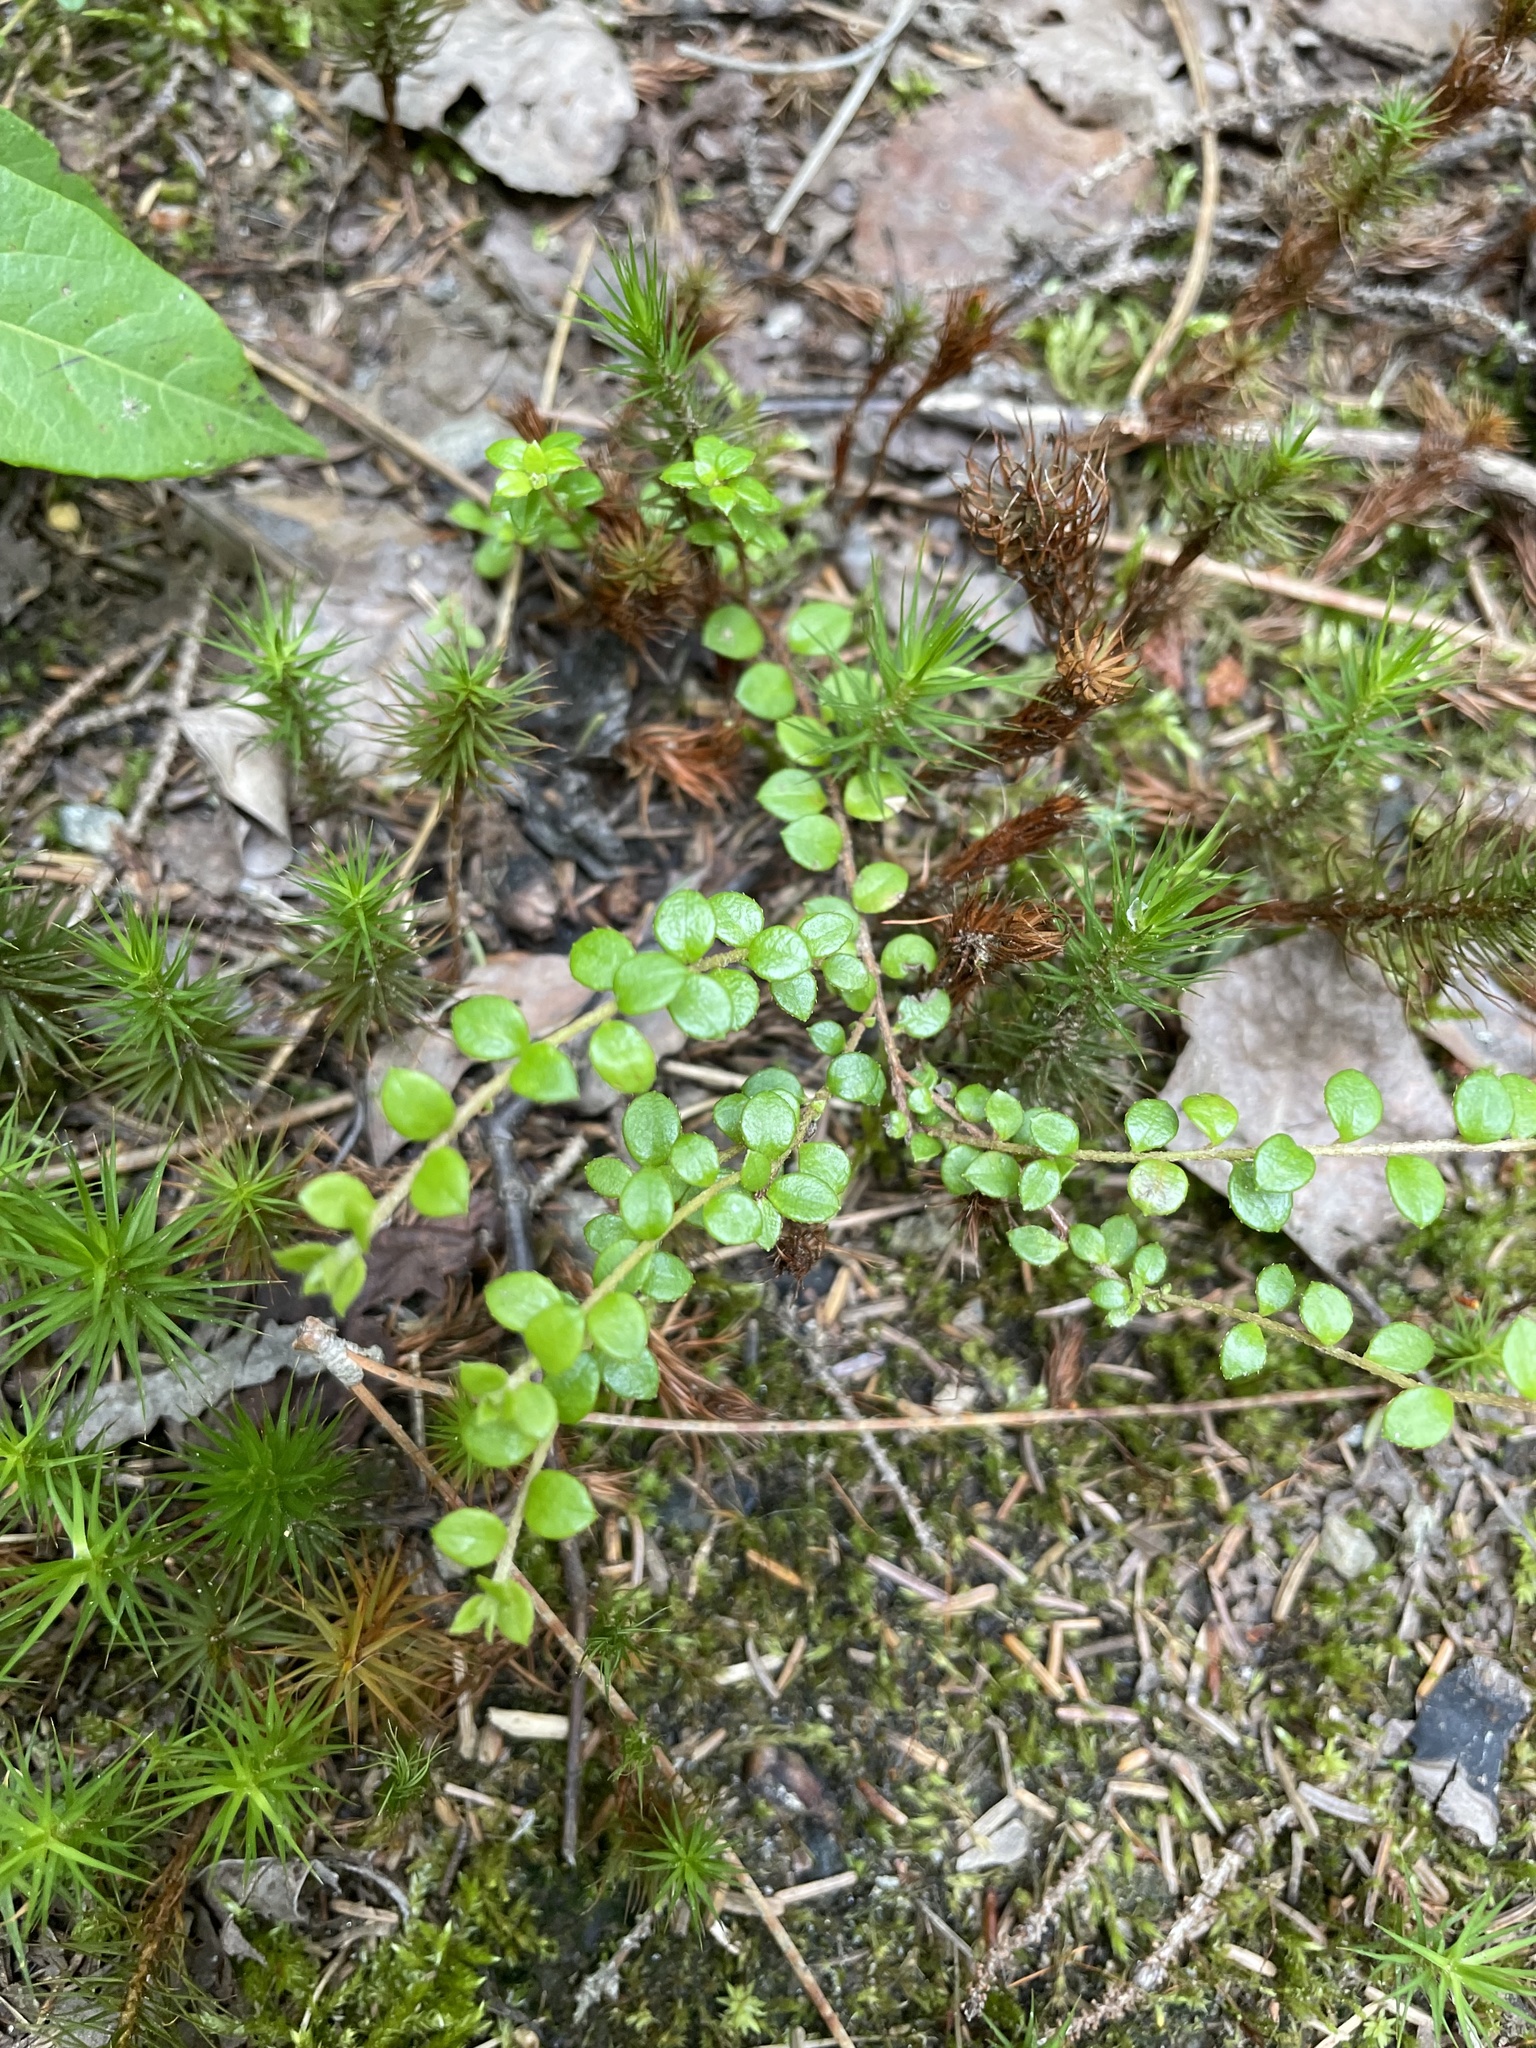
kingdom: Plantae
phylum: Tracheophyta
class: Magnoliopsida
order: Ericales
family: Ericaceae
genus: Gaultheria
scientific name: Gaultheria hispidula
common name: Cancer wintergreen
